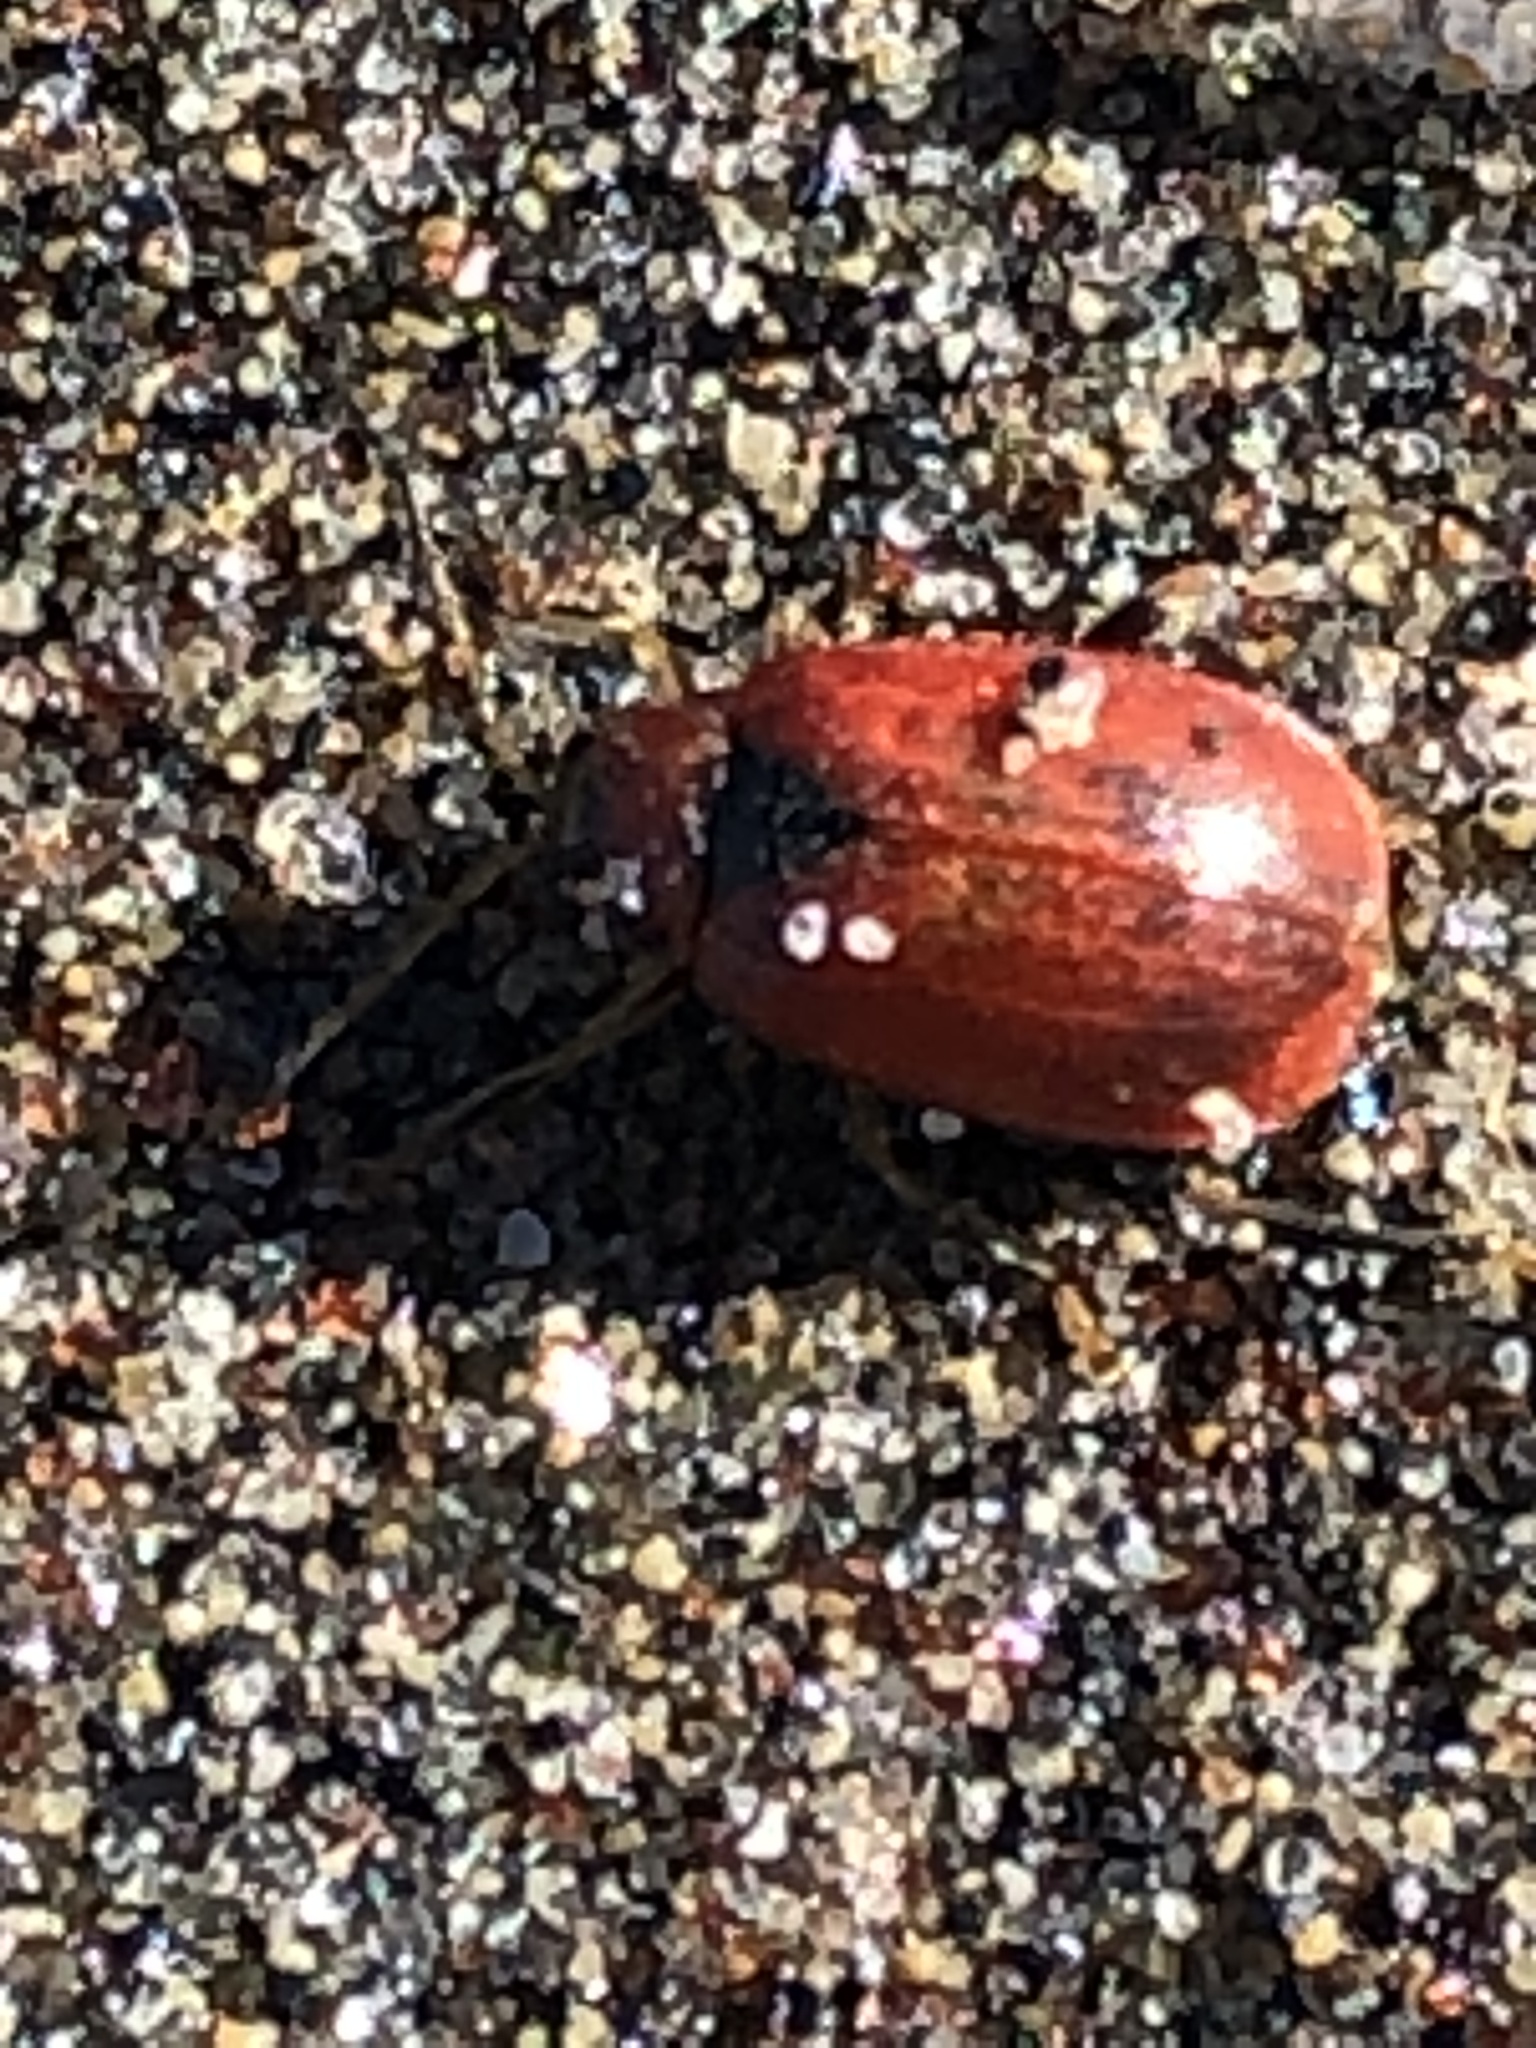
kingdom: Animalia
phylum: Arthropoda
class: Insecta
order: Coleoptera
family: Chrysomelidae
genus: Cerotoma
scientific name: Cerotoma trifurcata
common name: Bean leaf beetle
